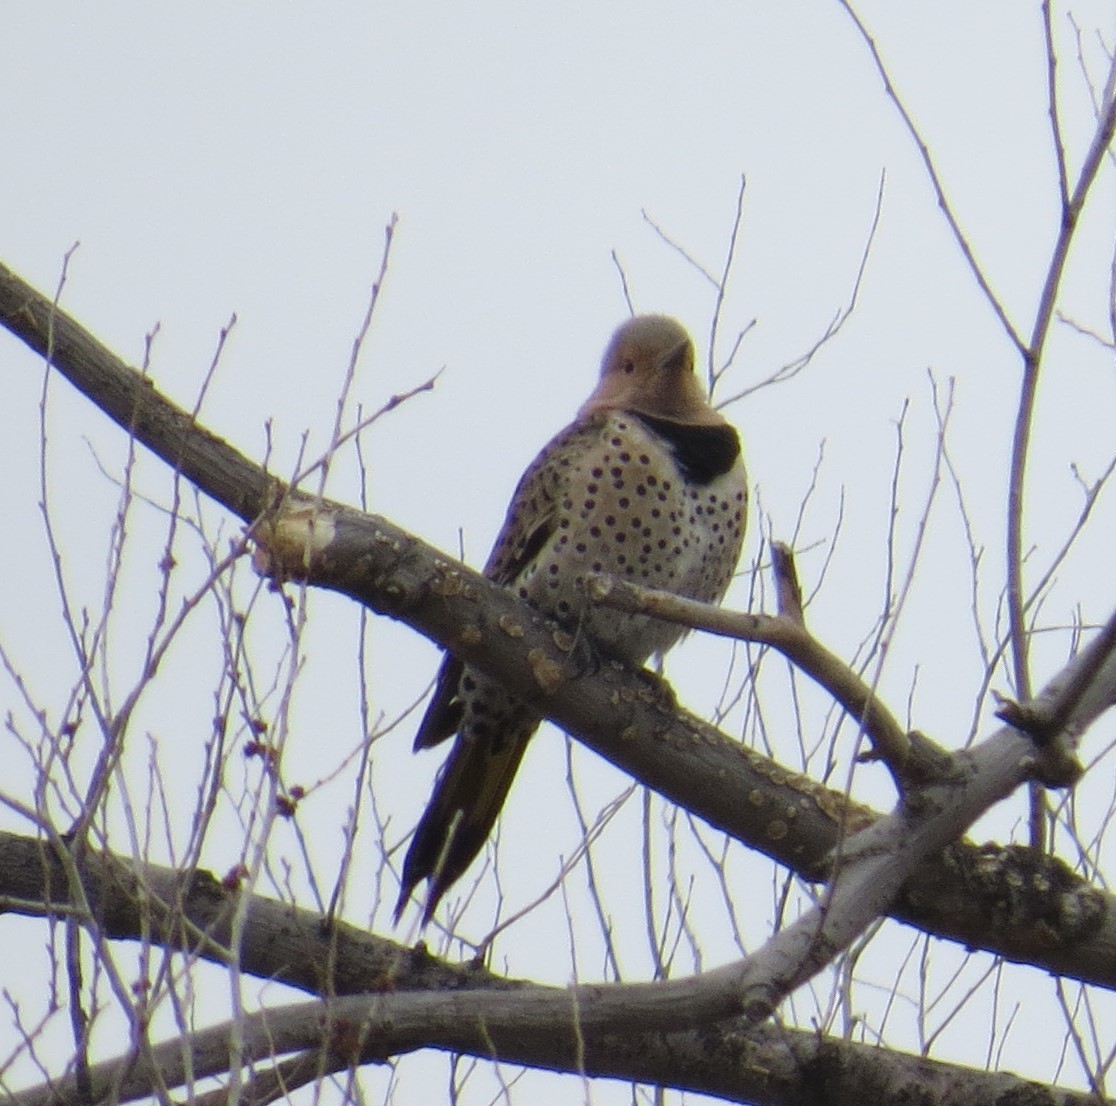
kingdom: Animalia
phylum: Chordata
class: Aves
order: Piciformes
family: Picidae
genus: Colaptes
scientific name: Colaptes auratus
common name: Northern flicker
